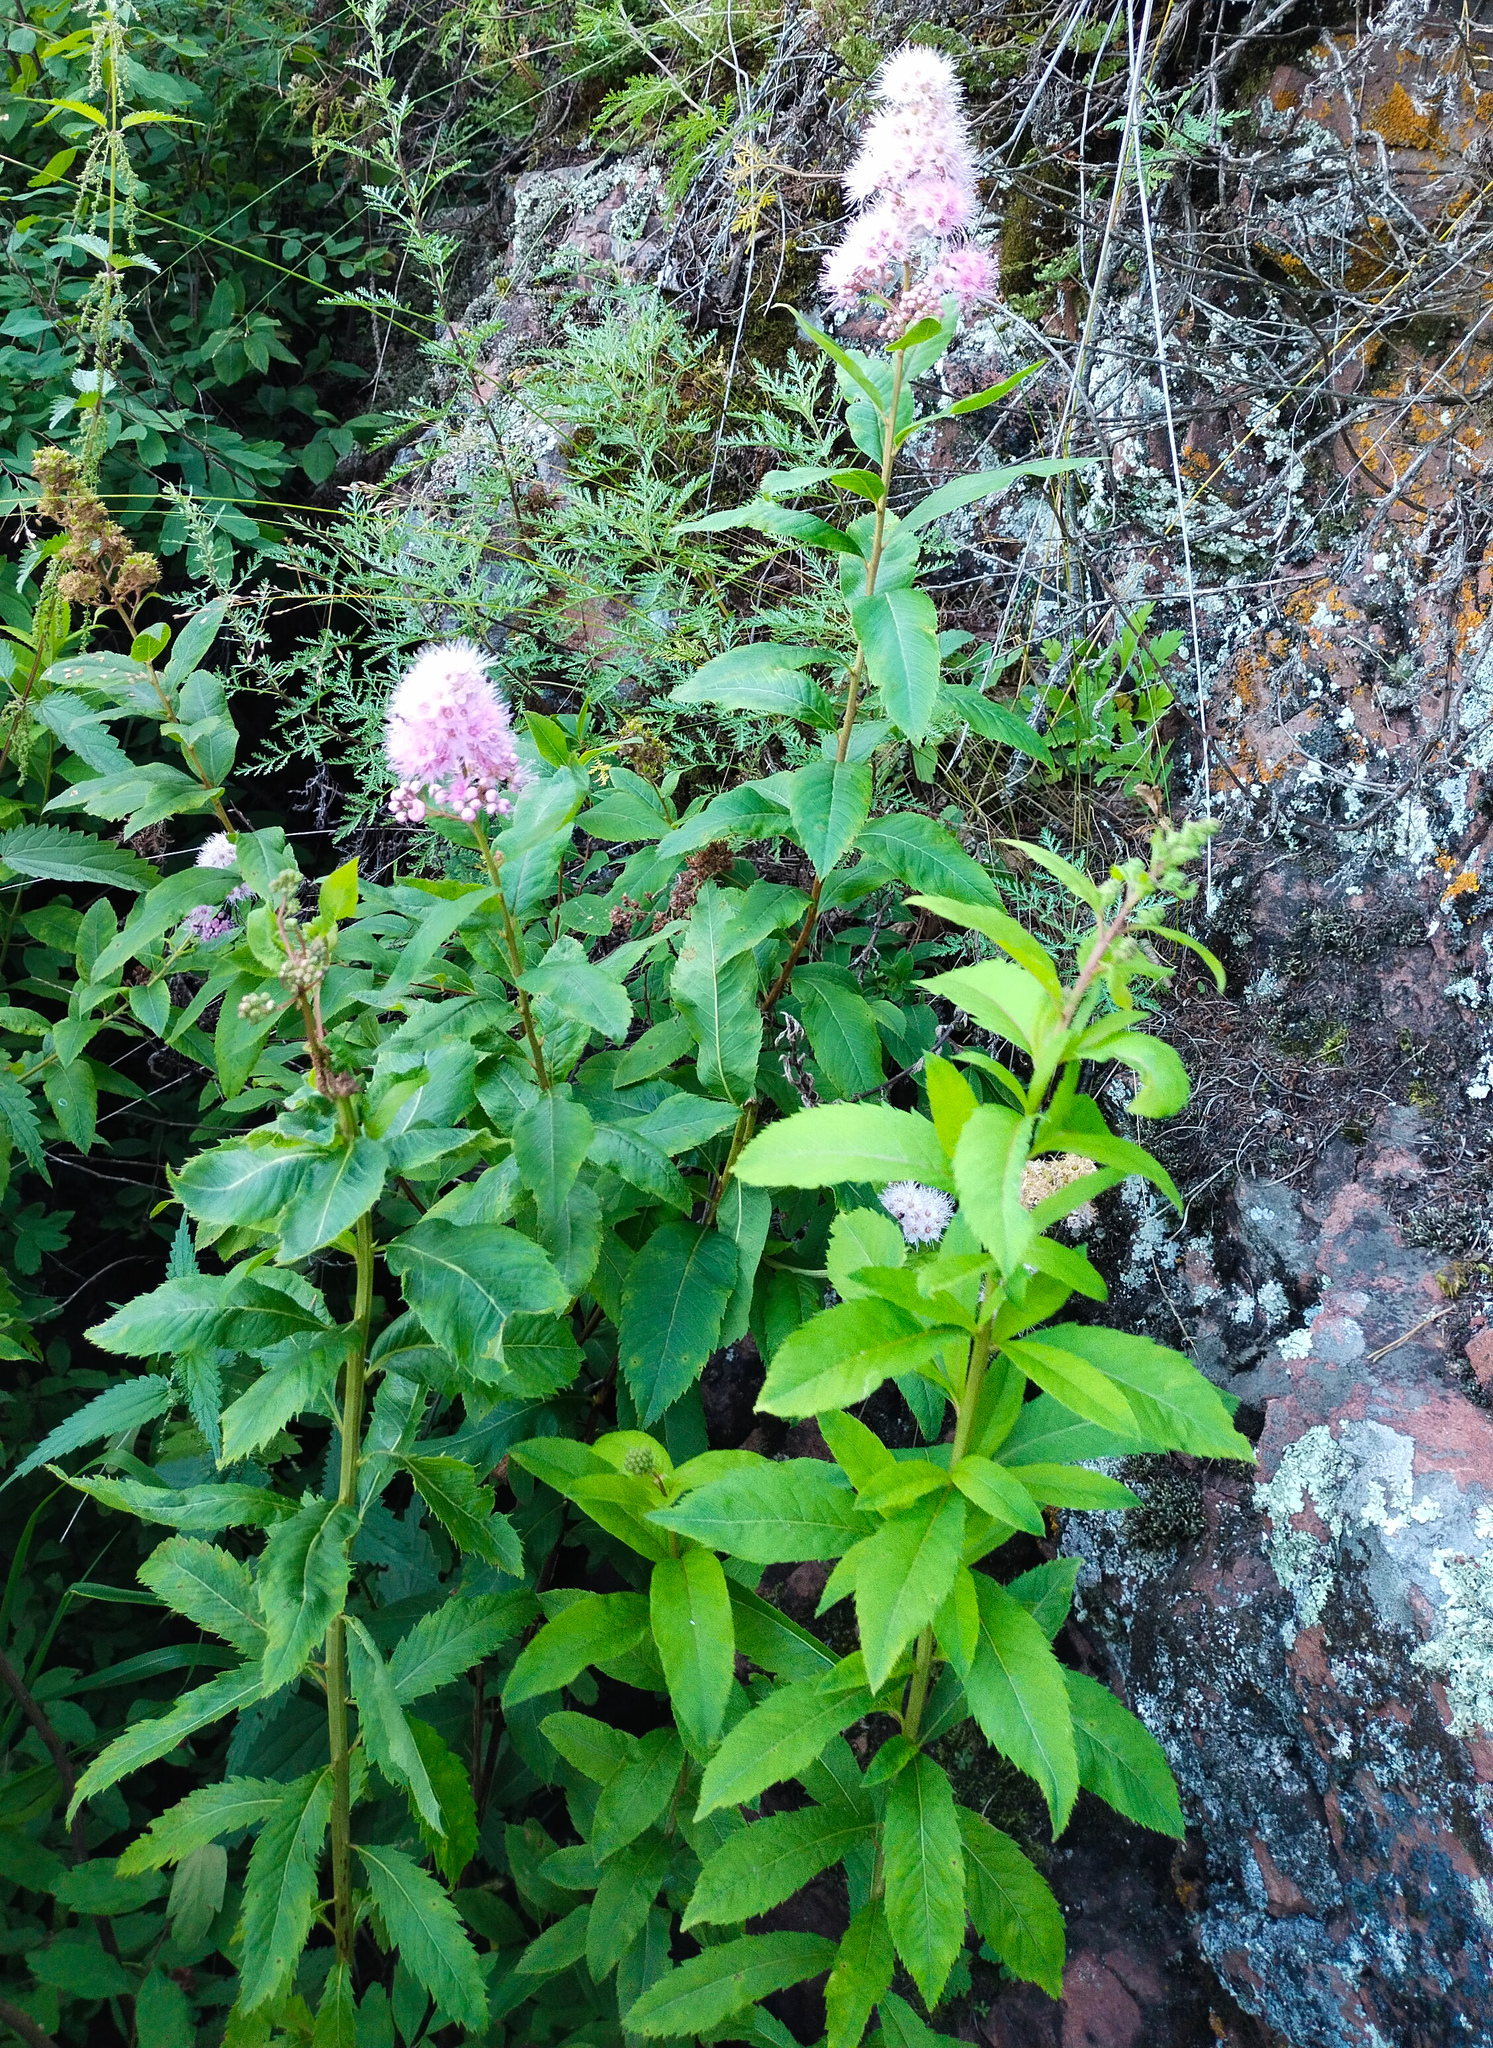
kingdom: Plantae
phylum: Tracheophyta
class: Magnoliopsida
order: Rosales
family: Rosaceae
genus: Spiraea
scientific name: Spiraea salicifolia
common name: Bridewort
